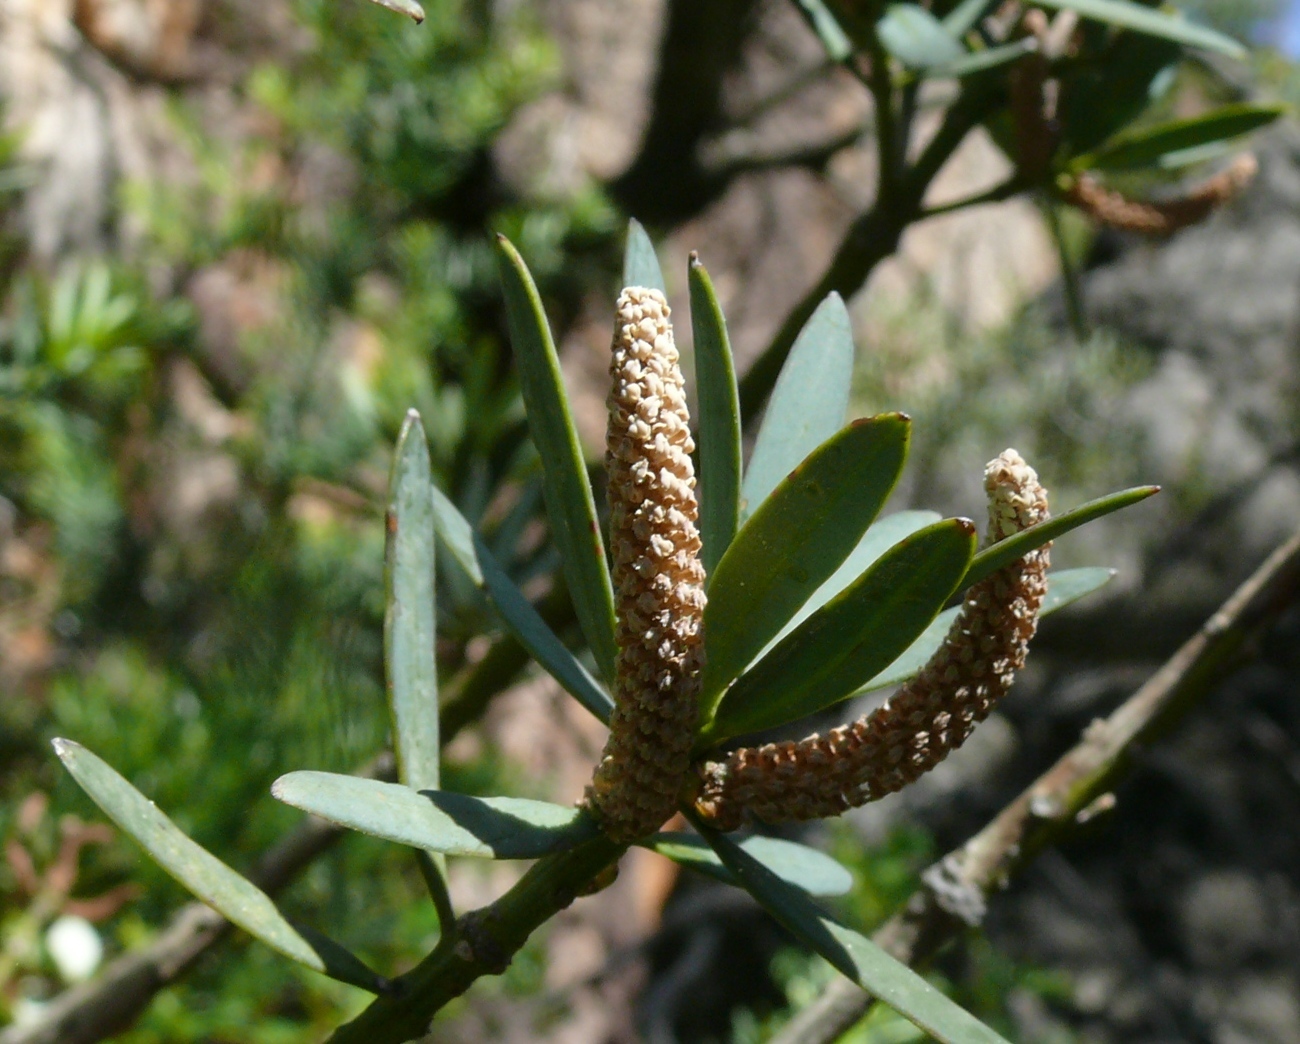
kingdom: Plantae
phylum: Tracheophyta
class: Pinopsida
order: Pinales
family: Podocarpaceae
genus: Podocarpus
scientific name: Podocarpus elongatus
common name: Breede river yellowwood
